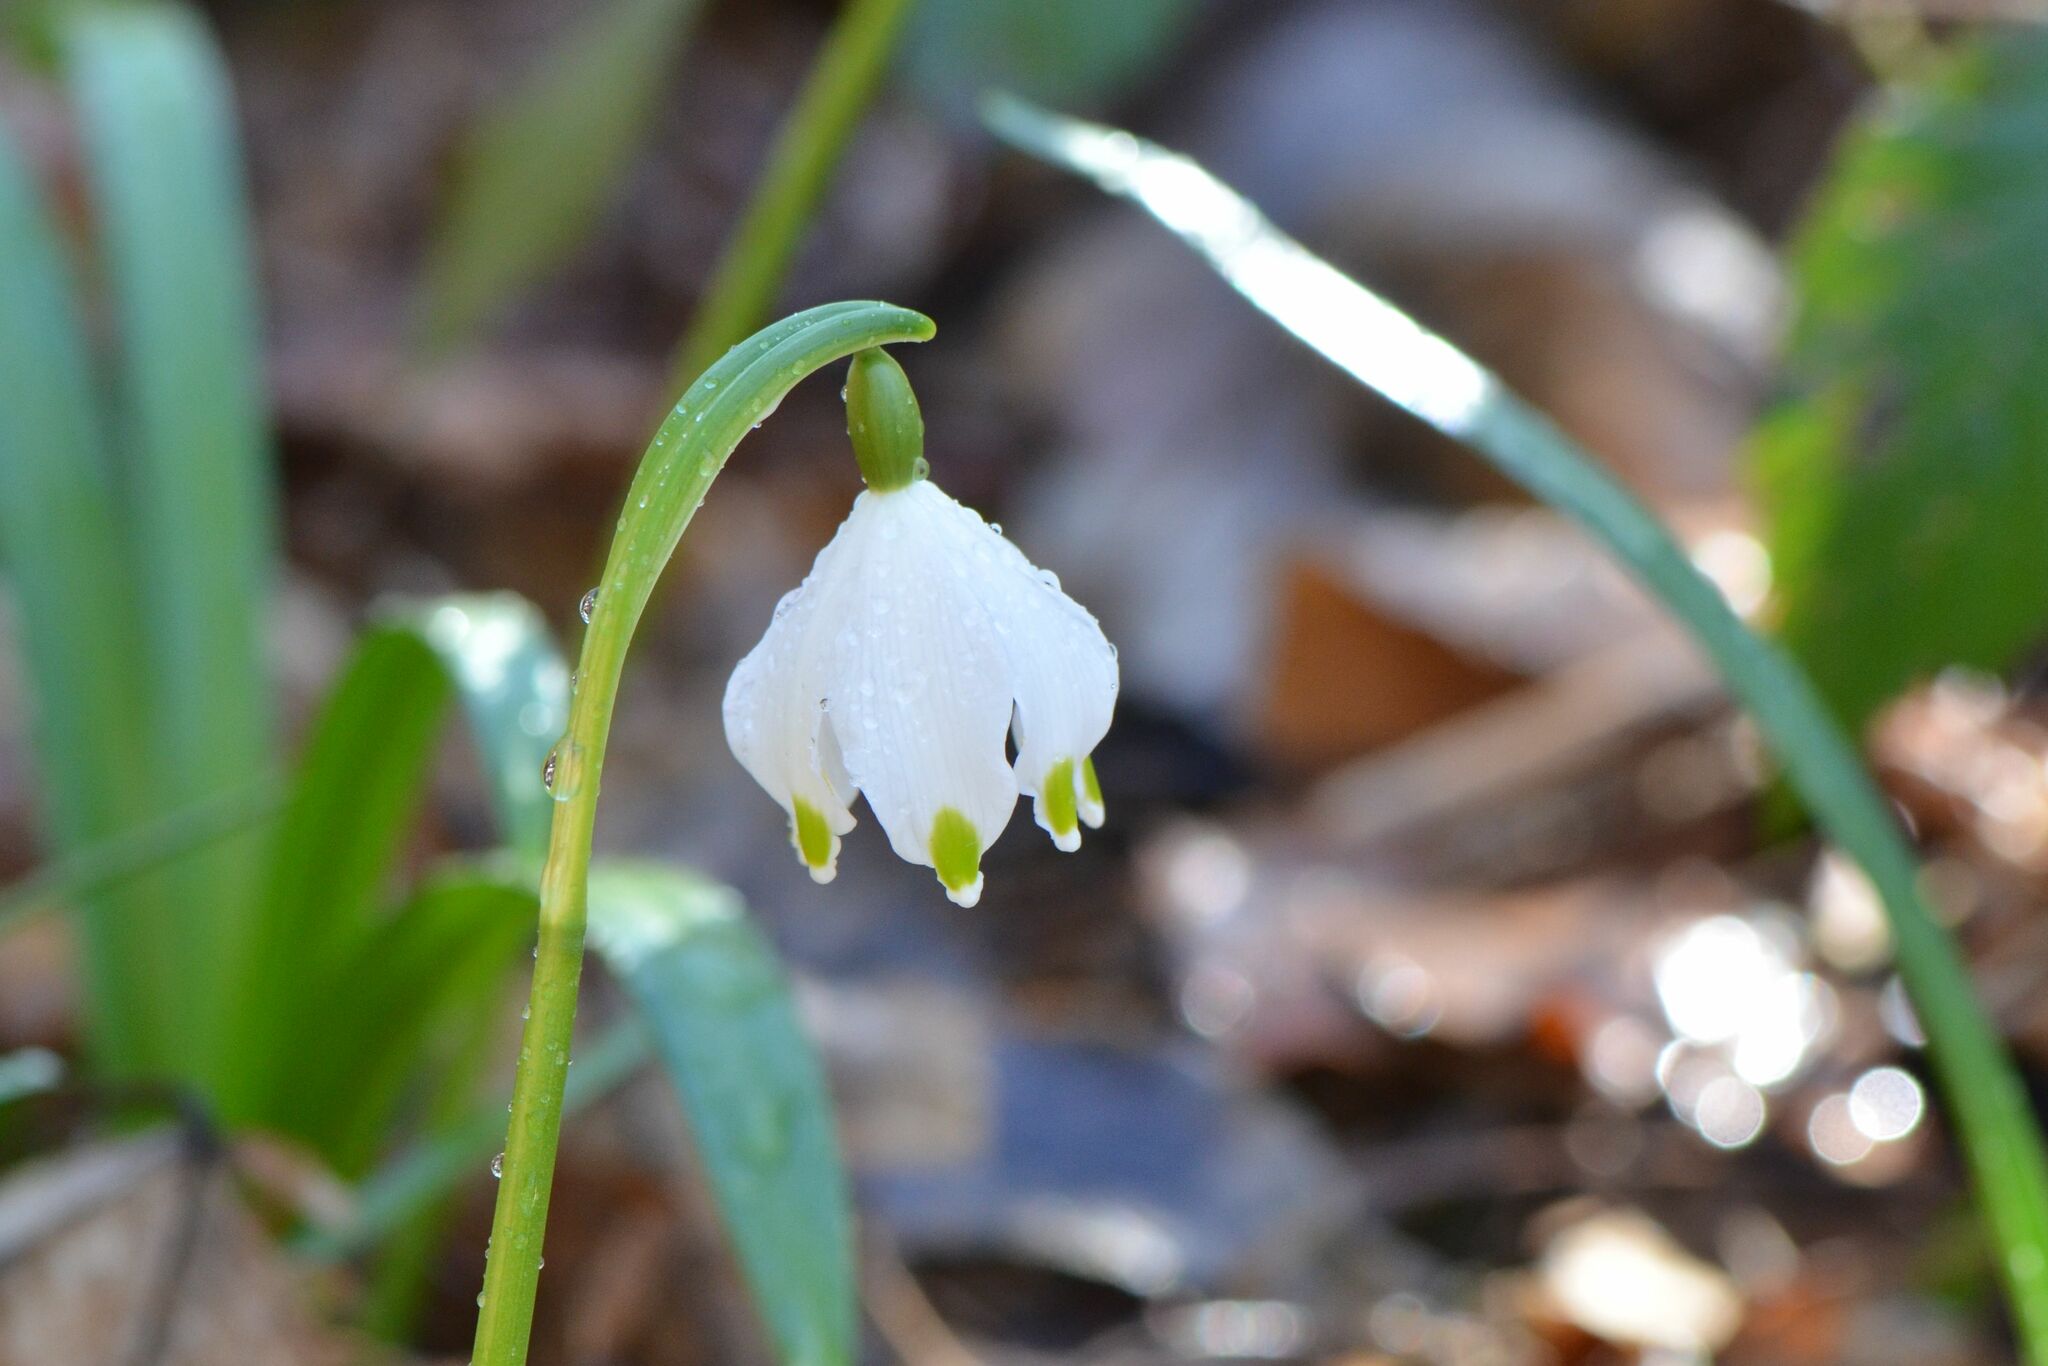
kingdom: Plantae
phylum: Tracheophyta
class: Liliopsida
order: Asparagales
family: Amaryllidaceae
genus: Leucojum
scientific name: Leucojum vernum
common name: Spring snowflake
